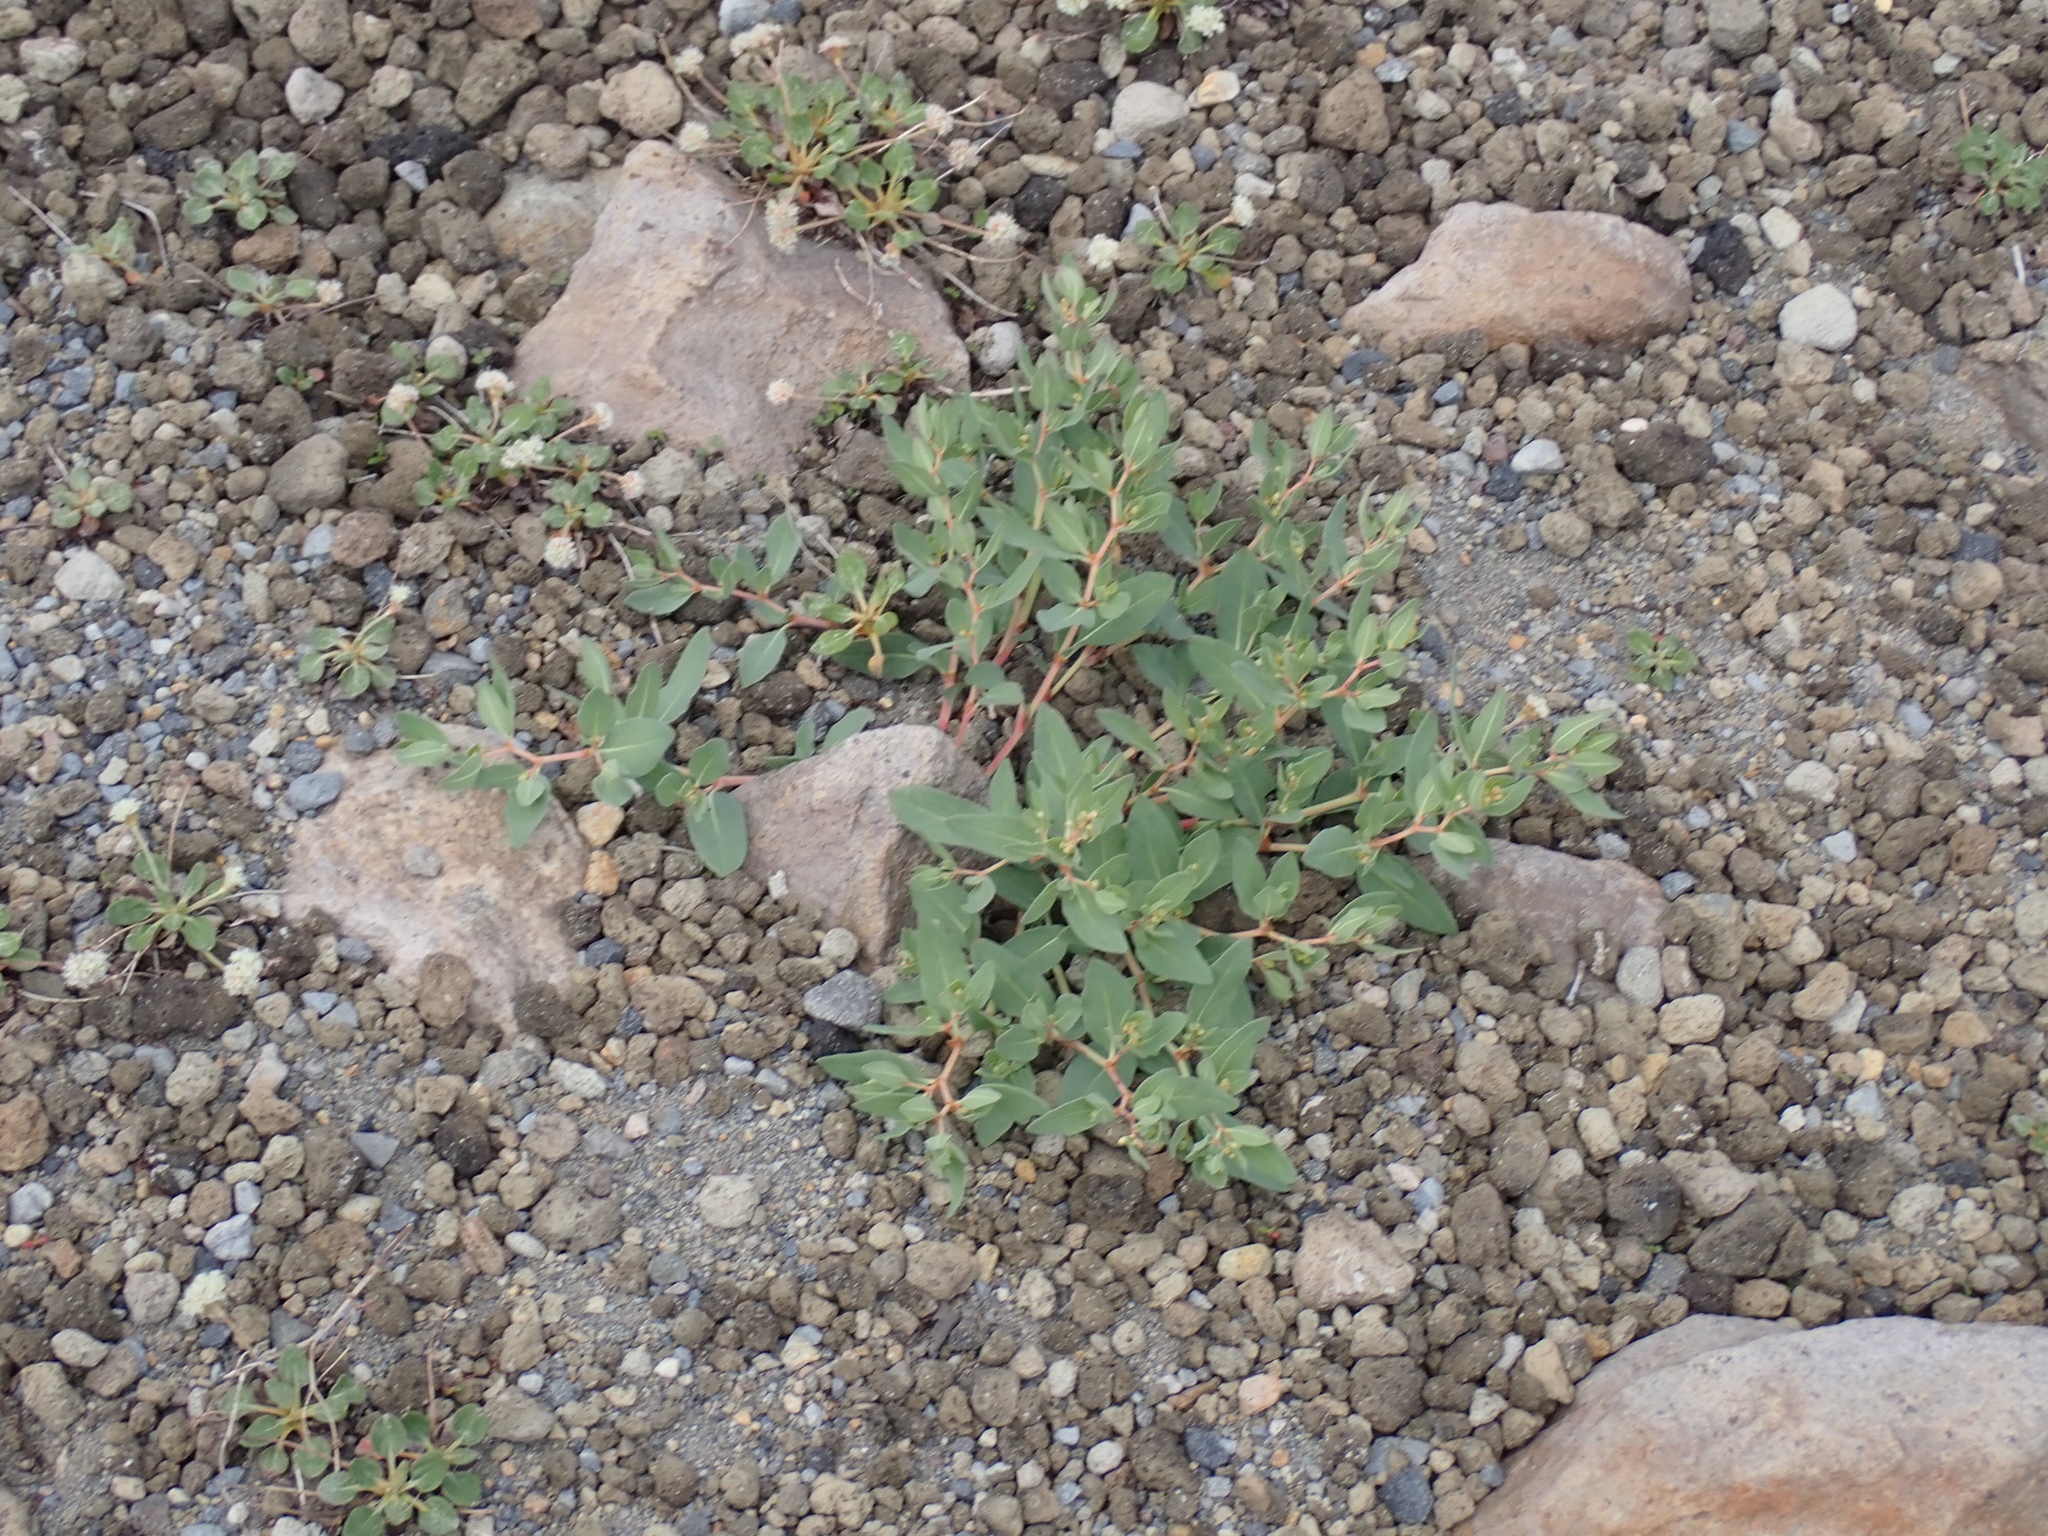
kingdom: Plantae
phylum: Tracheophyta
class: Magnoliopsida
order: Caryophyllales
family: Polygonaceae
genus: Koenigia
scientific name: Koenigia davisiae
